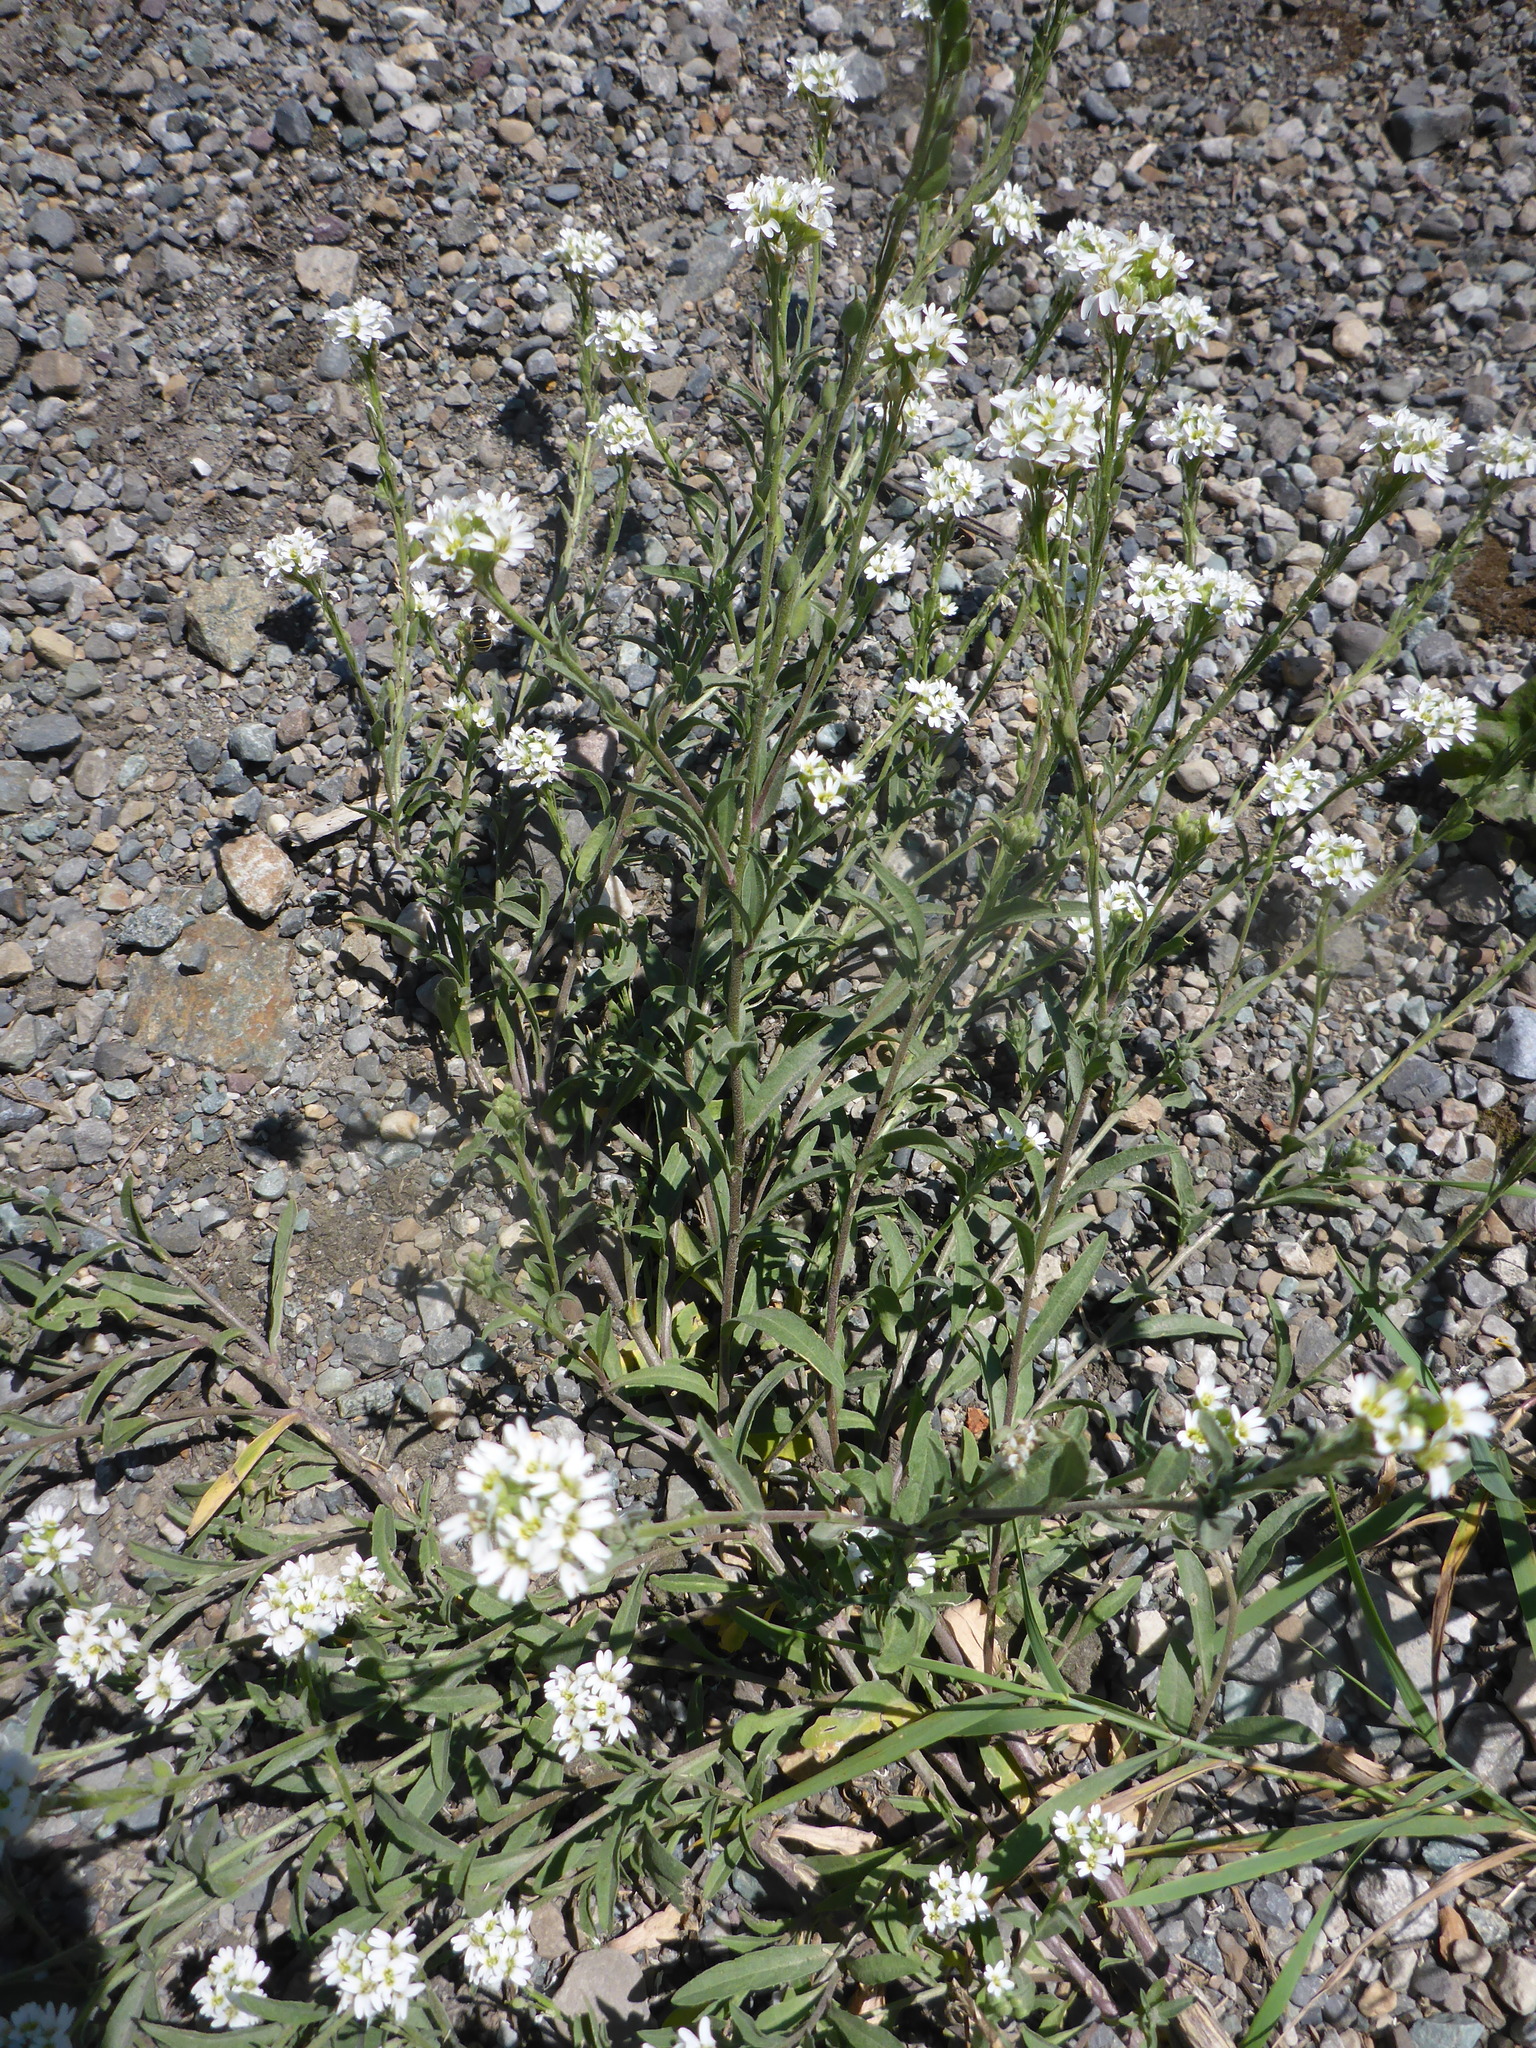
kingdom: Plantae
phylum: Tracheophyta
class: Magnoliopsida
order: Brassicales
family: Brassicaceae
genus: Berteroa
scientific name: Berteroa incana
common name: Hoary alison
